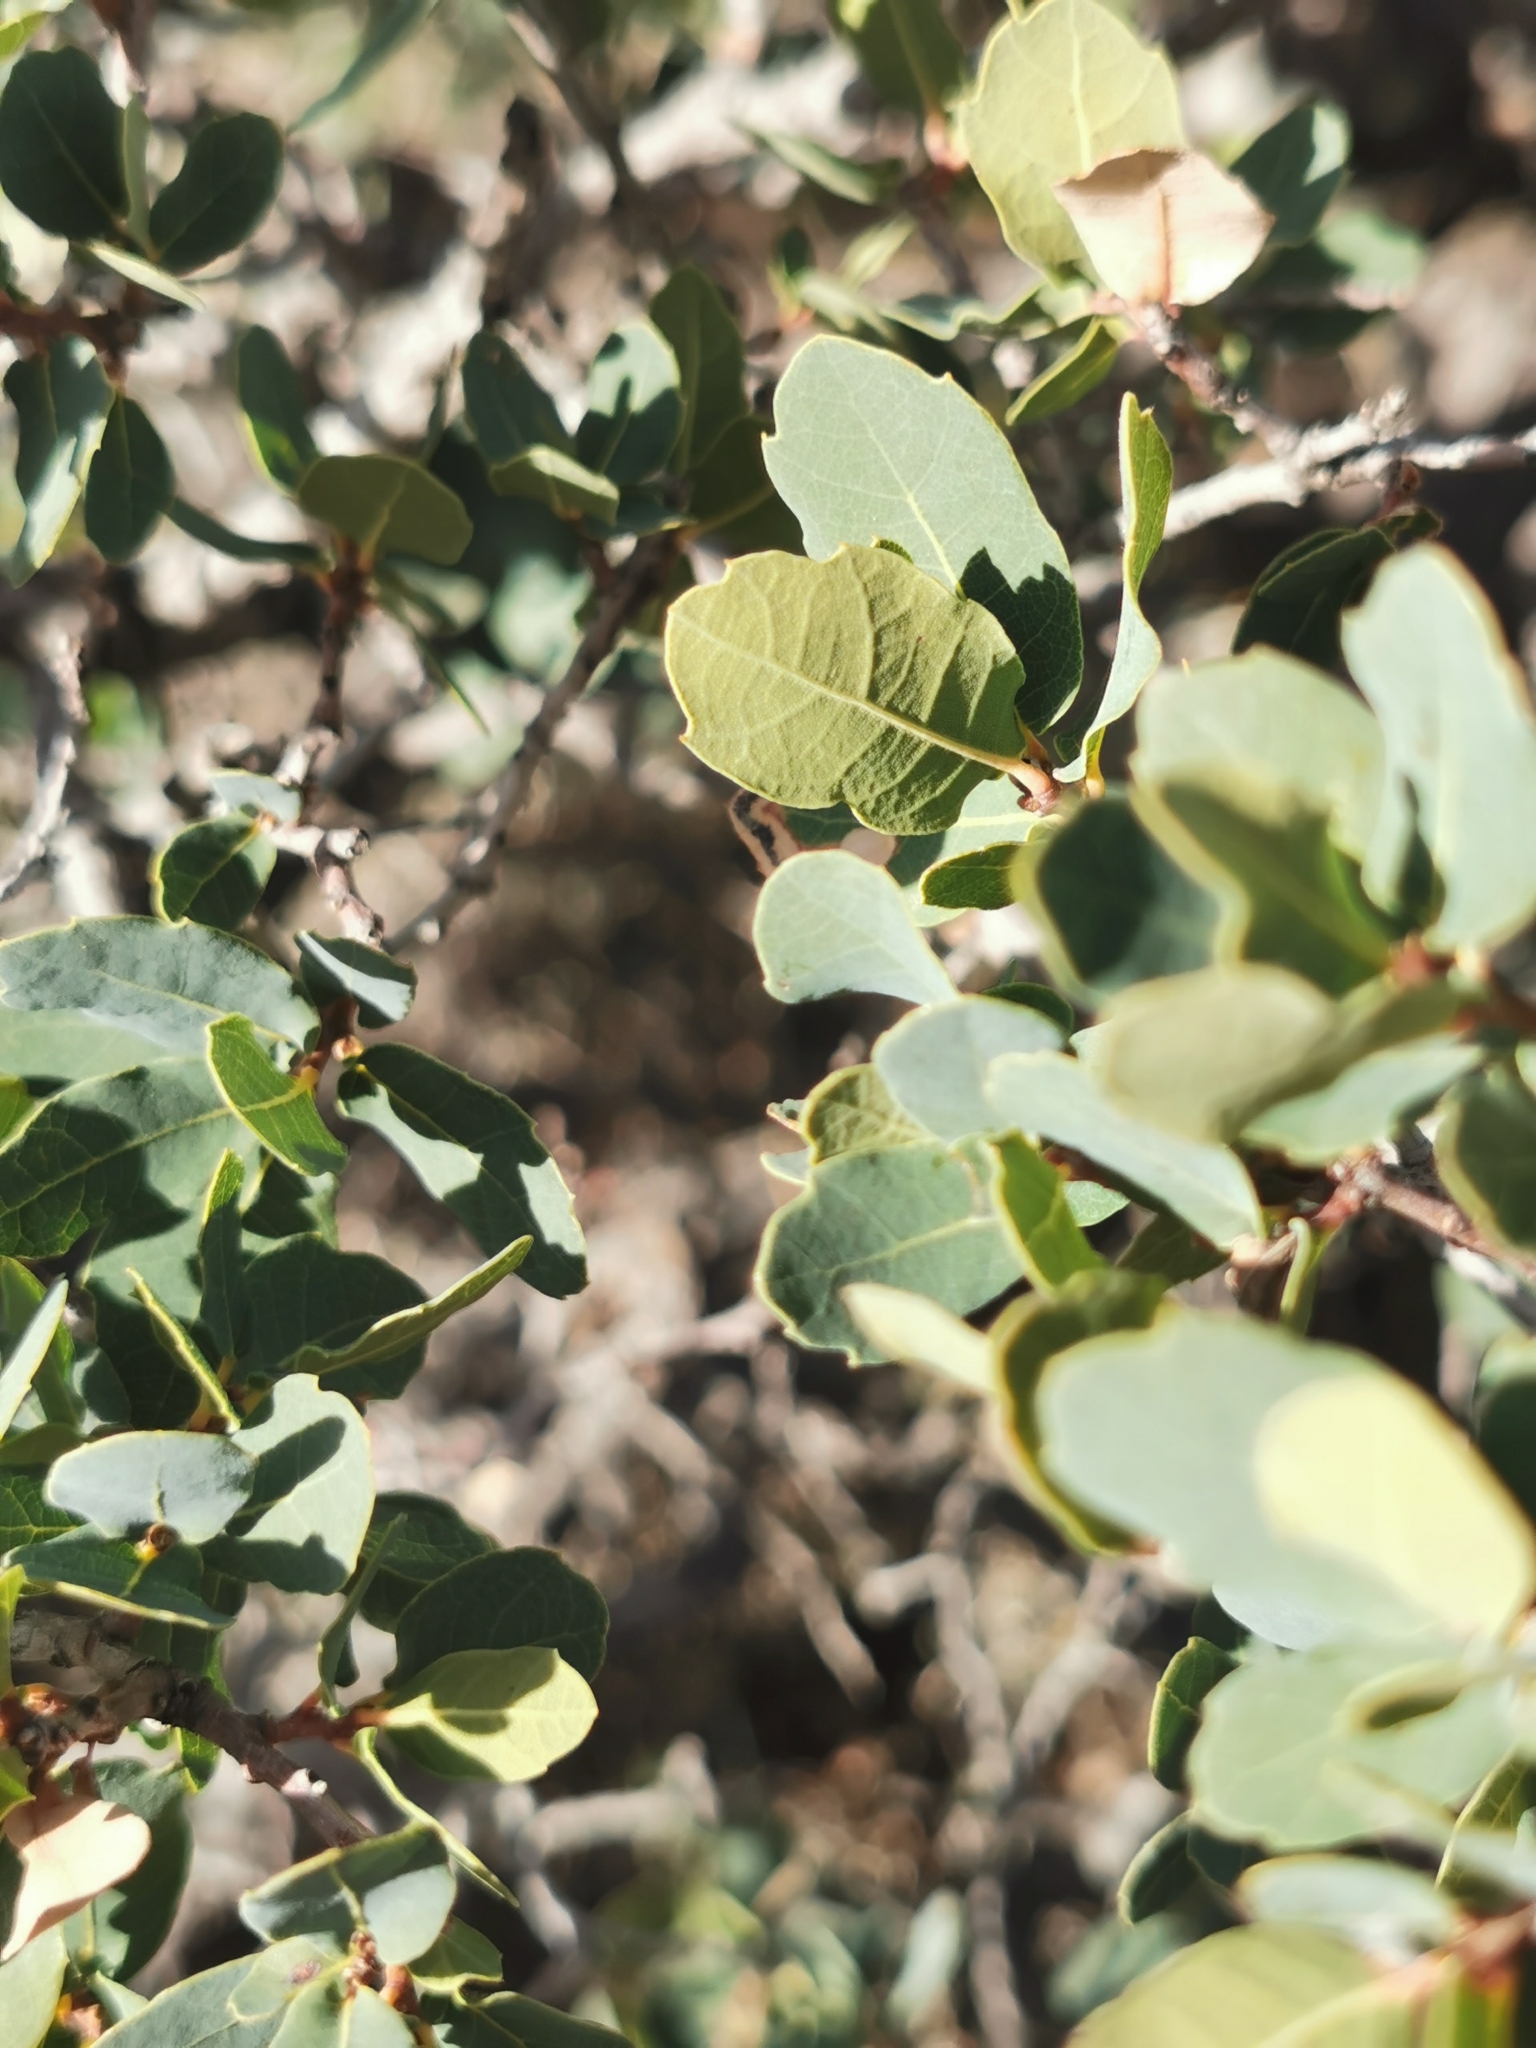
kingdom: Plantae
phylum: Tracheophyta
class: Magnoliopsida
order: Fagales
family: Fagaceae
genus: Quercus
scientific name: Quercus depressipes
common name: Davis mountain oak
